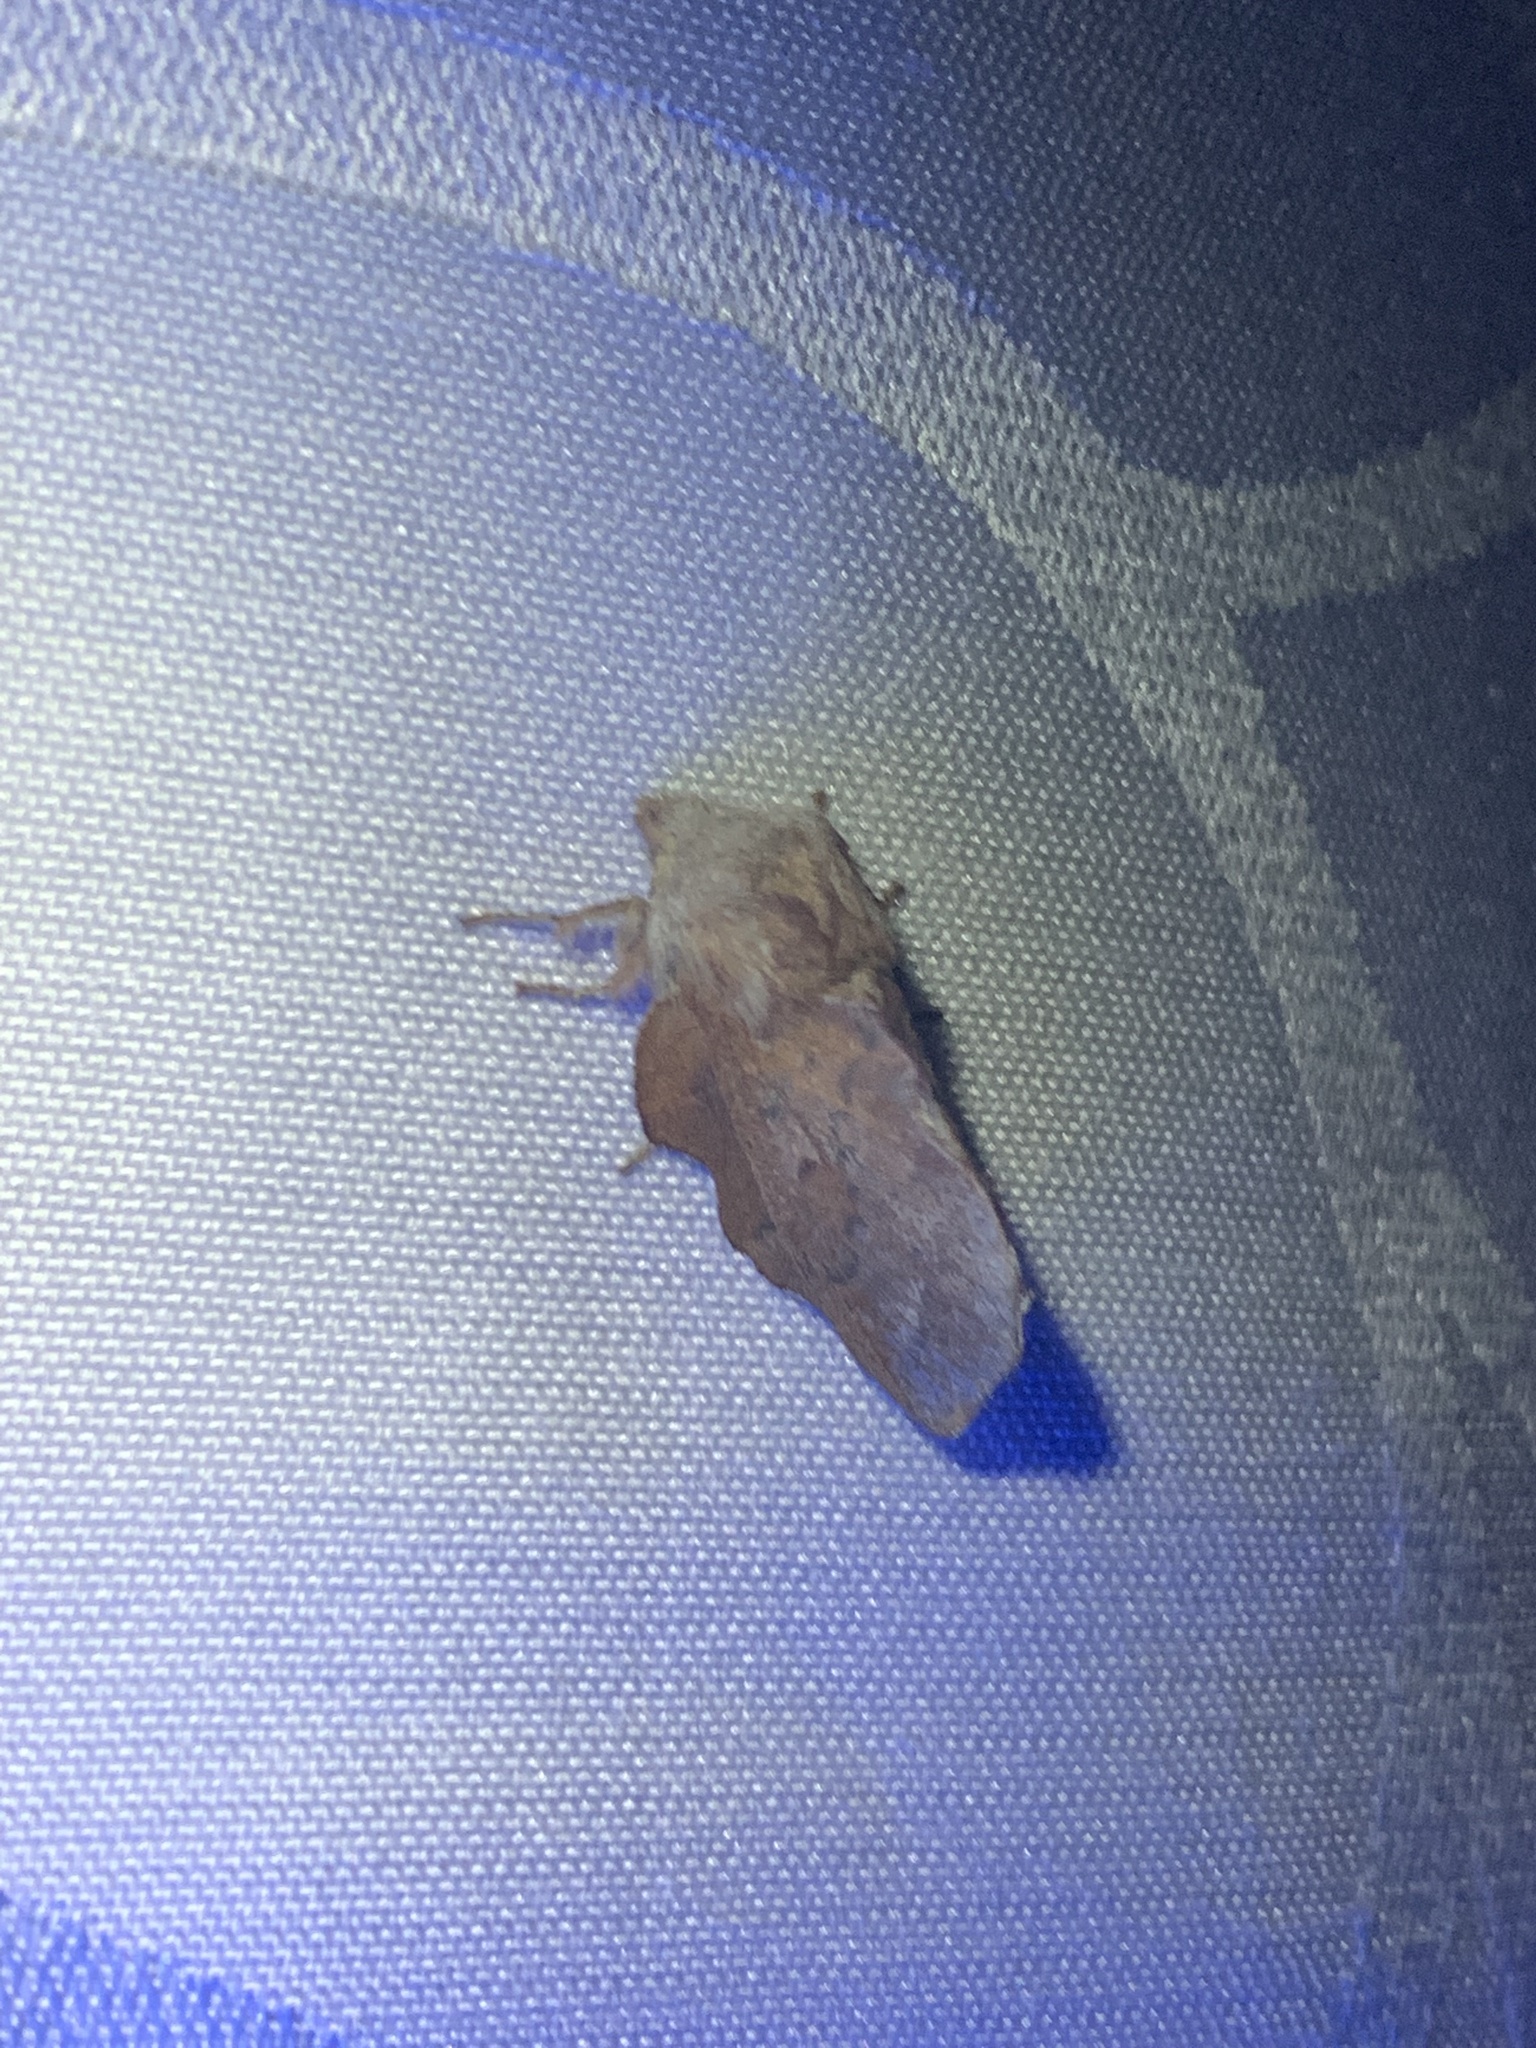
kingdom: Animalia
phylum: Arthropoda
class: Insecta
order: Lepidoptera
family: Lasiocampidae
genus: Phyllodesma
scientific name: Phyllodesma americana
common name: American lappet moth
